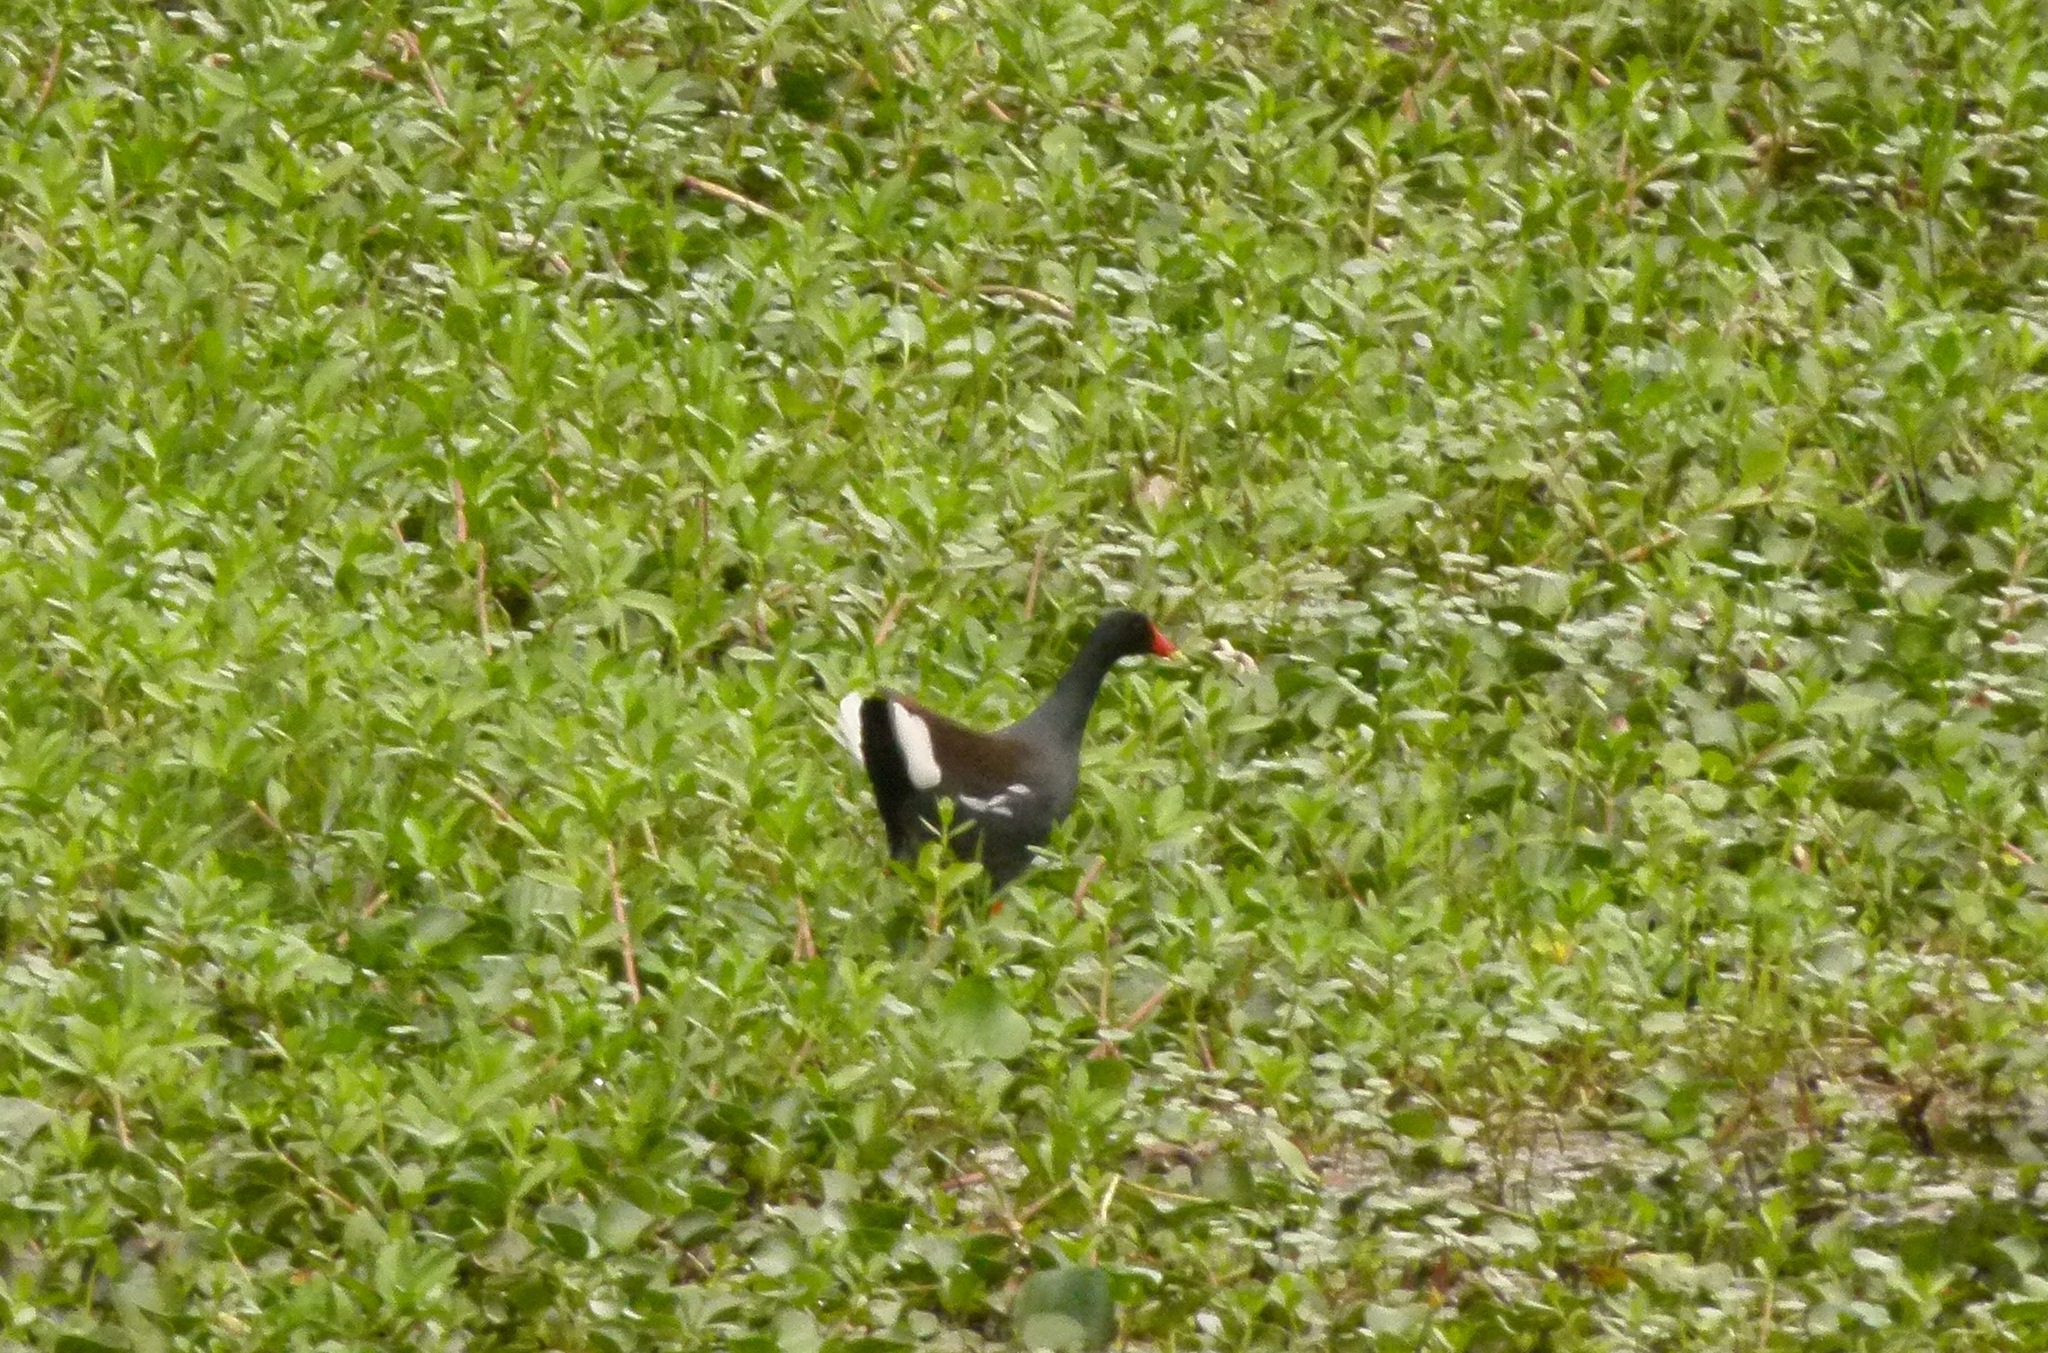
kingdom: Animalia
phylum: Chordata
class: Aves
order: Gruiformes
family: Rallidae
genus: Gallinula
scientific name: Gallinula chloropus
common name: Common moorhen
